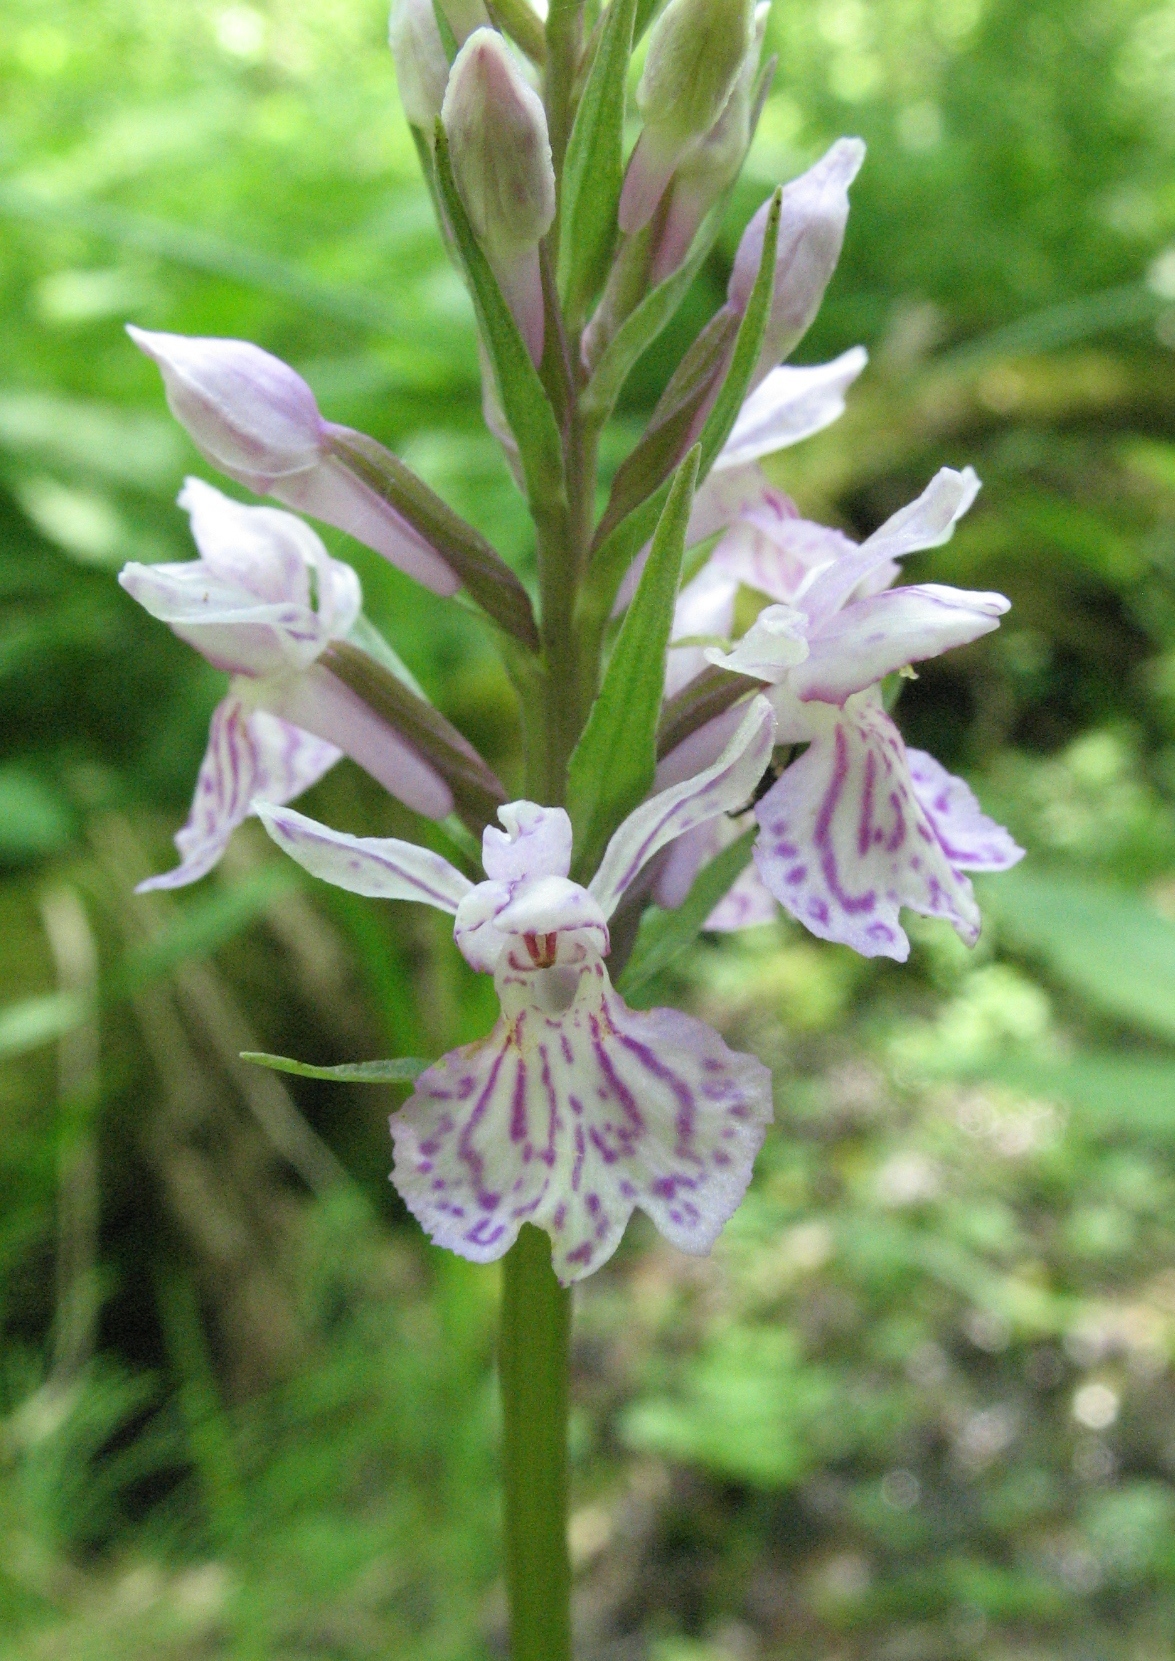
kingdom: Plantae
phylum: Tracheophyta
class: Liliopsida
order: Asparagales
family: Orchidaceae
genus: Dactylorhiza
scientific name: Dactylorhiza maculata
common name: Heath spotted-orchid
